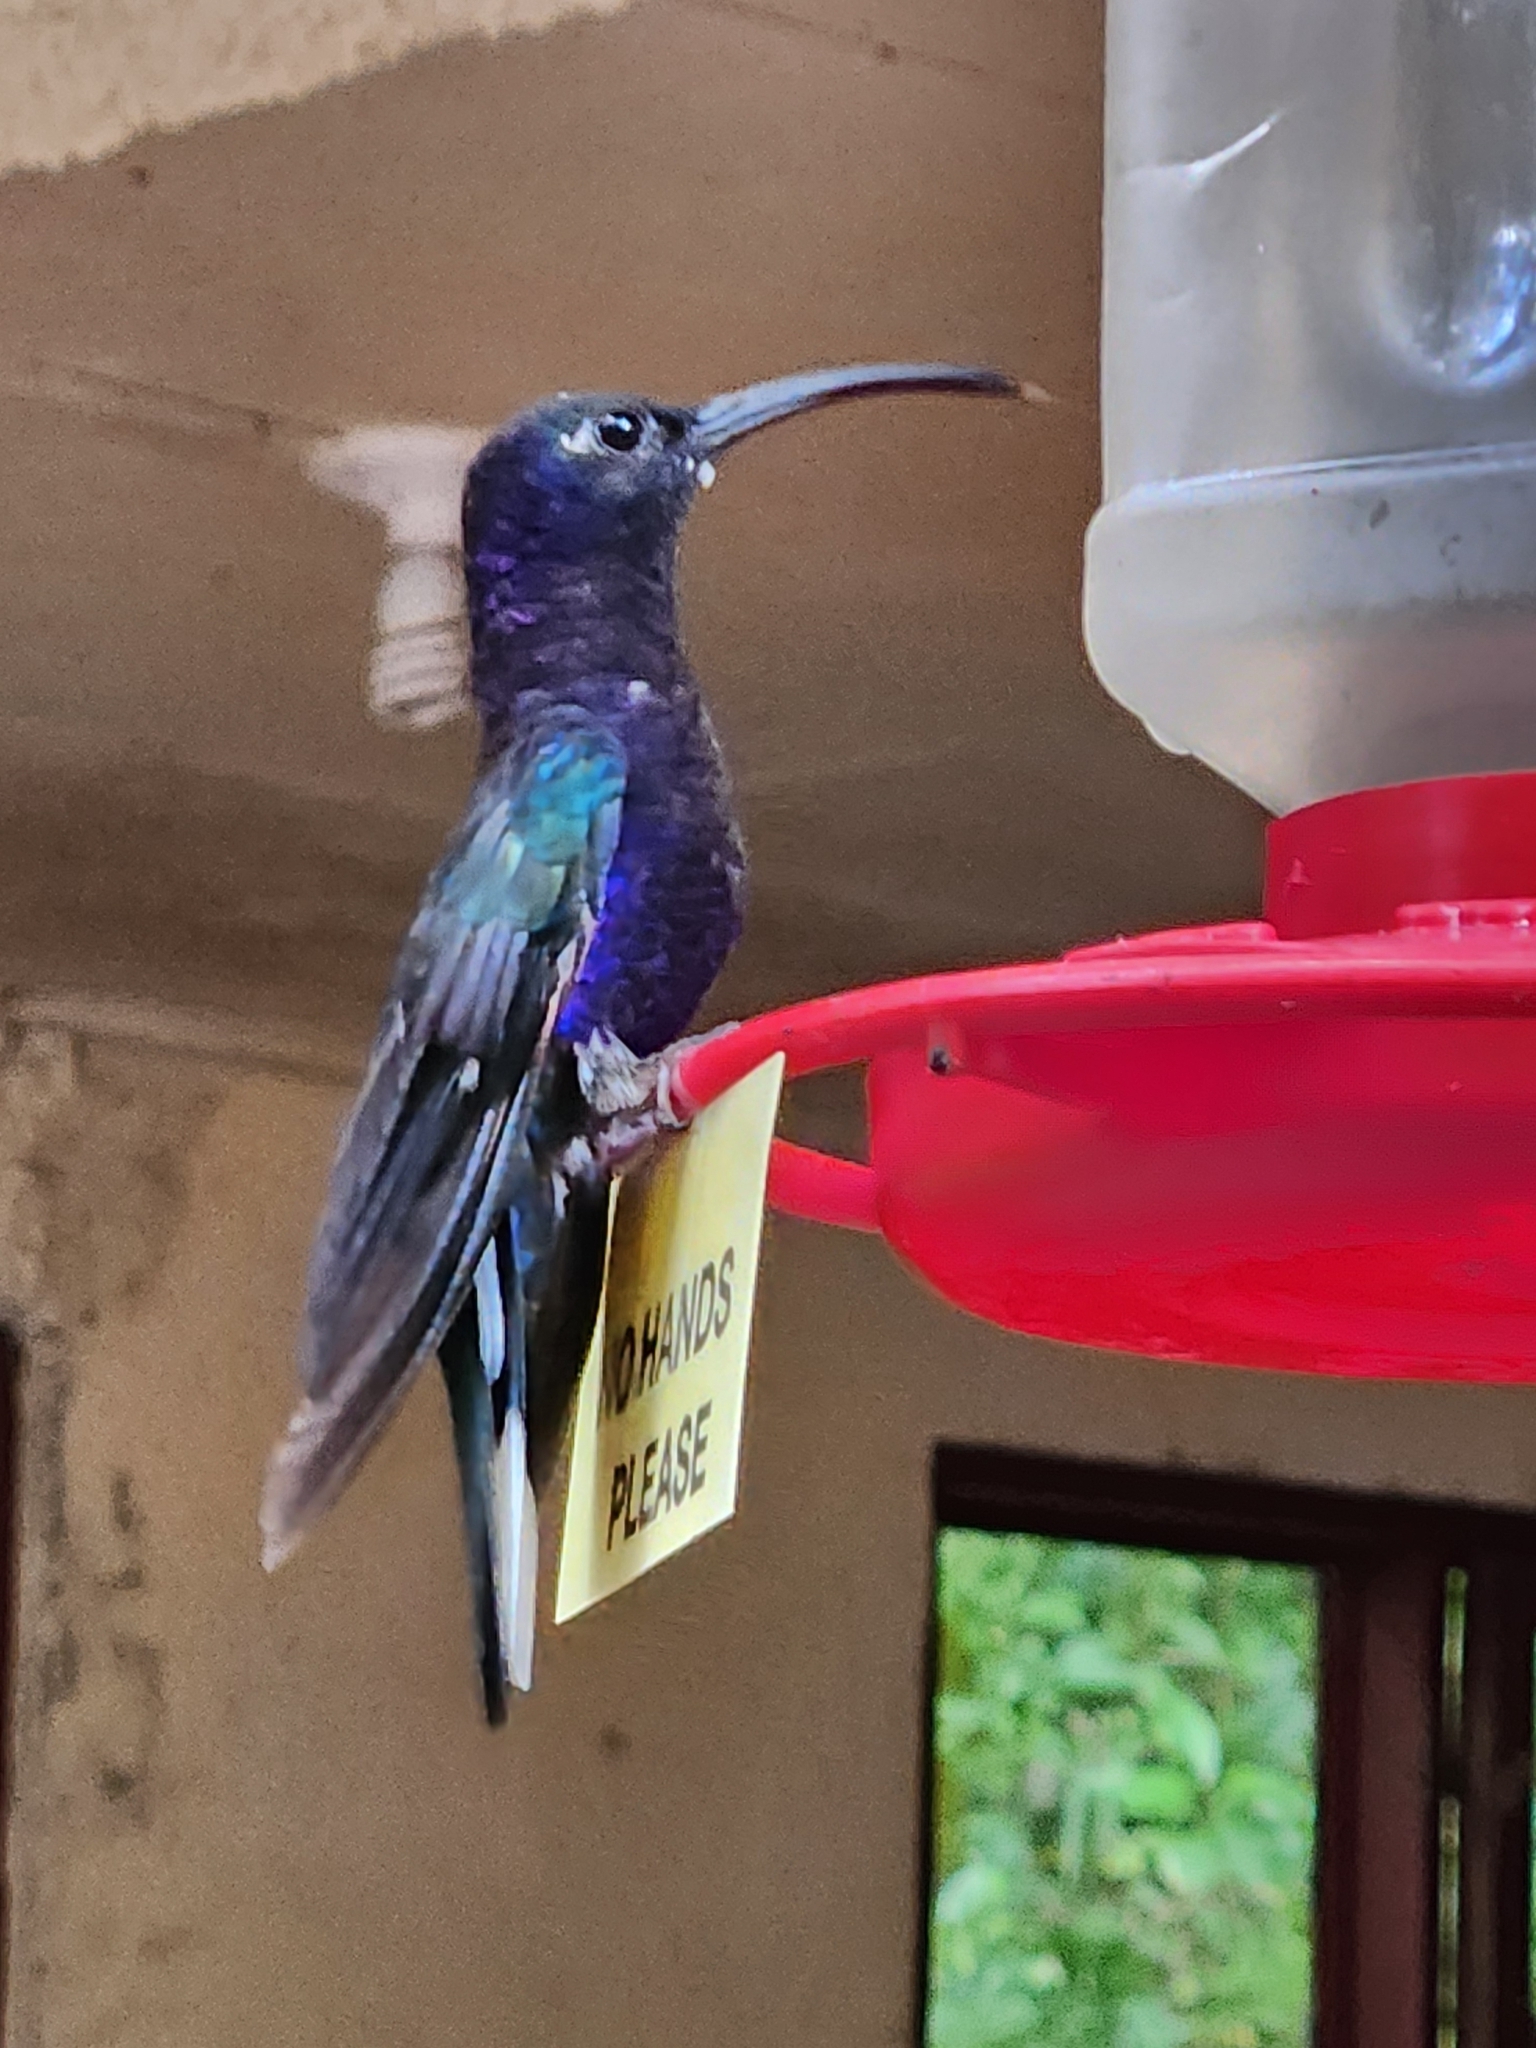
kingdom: Animalia
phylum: Chordata
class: Aves
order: Apodiformes
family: Trochilidae
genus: Campylopterus
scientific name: Campylopterus hemileucurus
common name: Violet sabrewing
